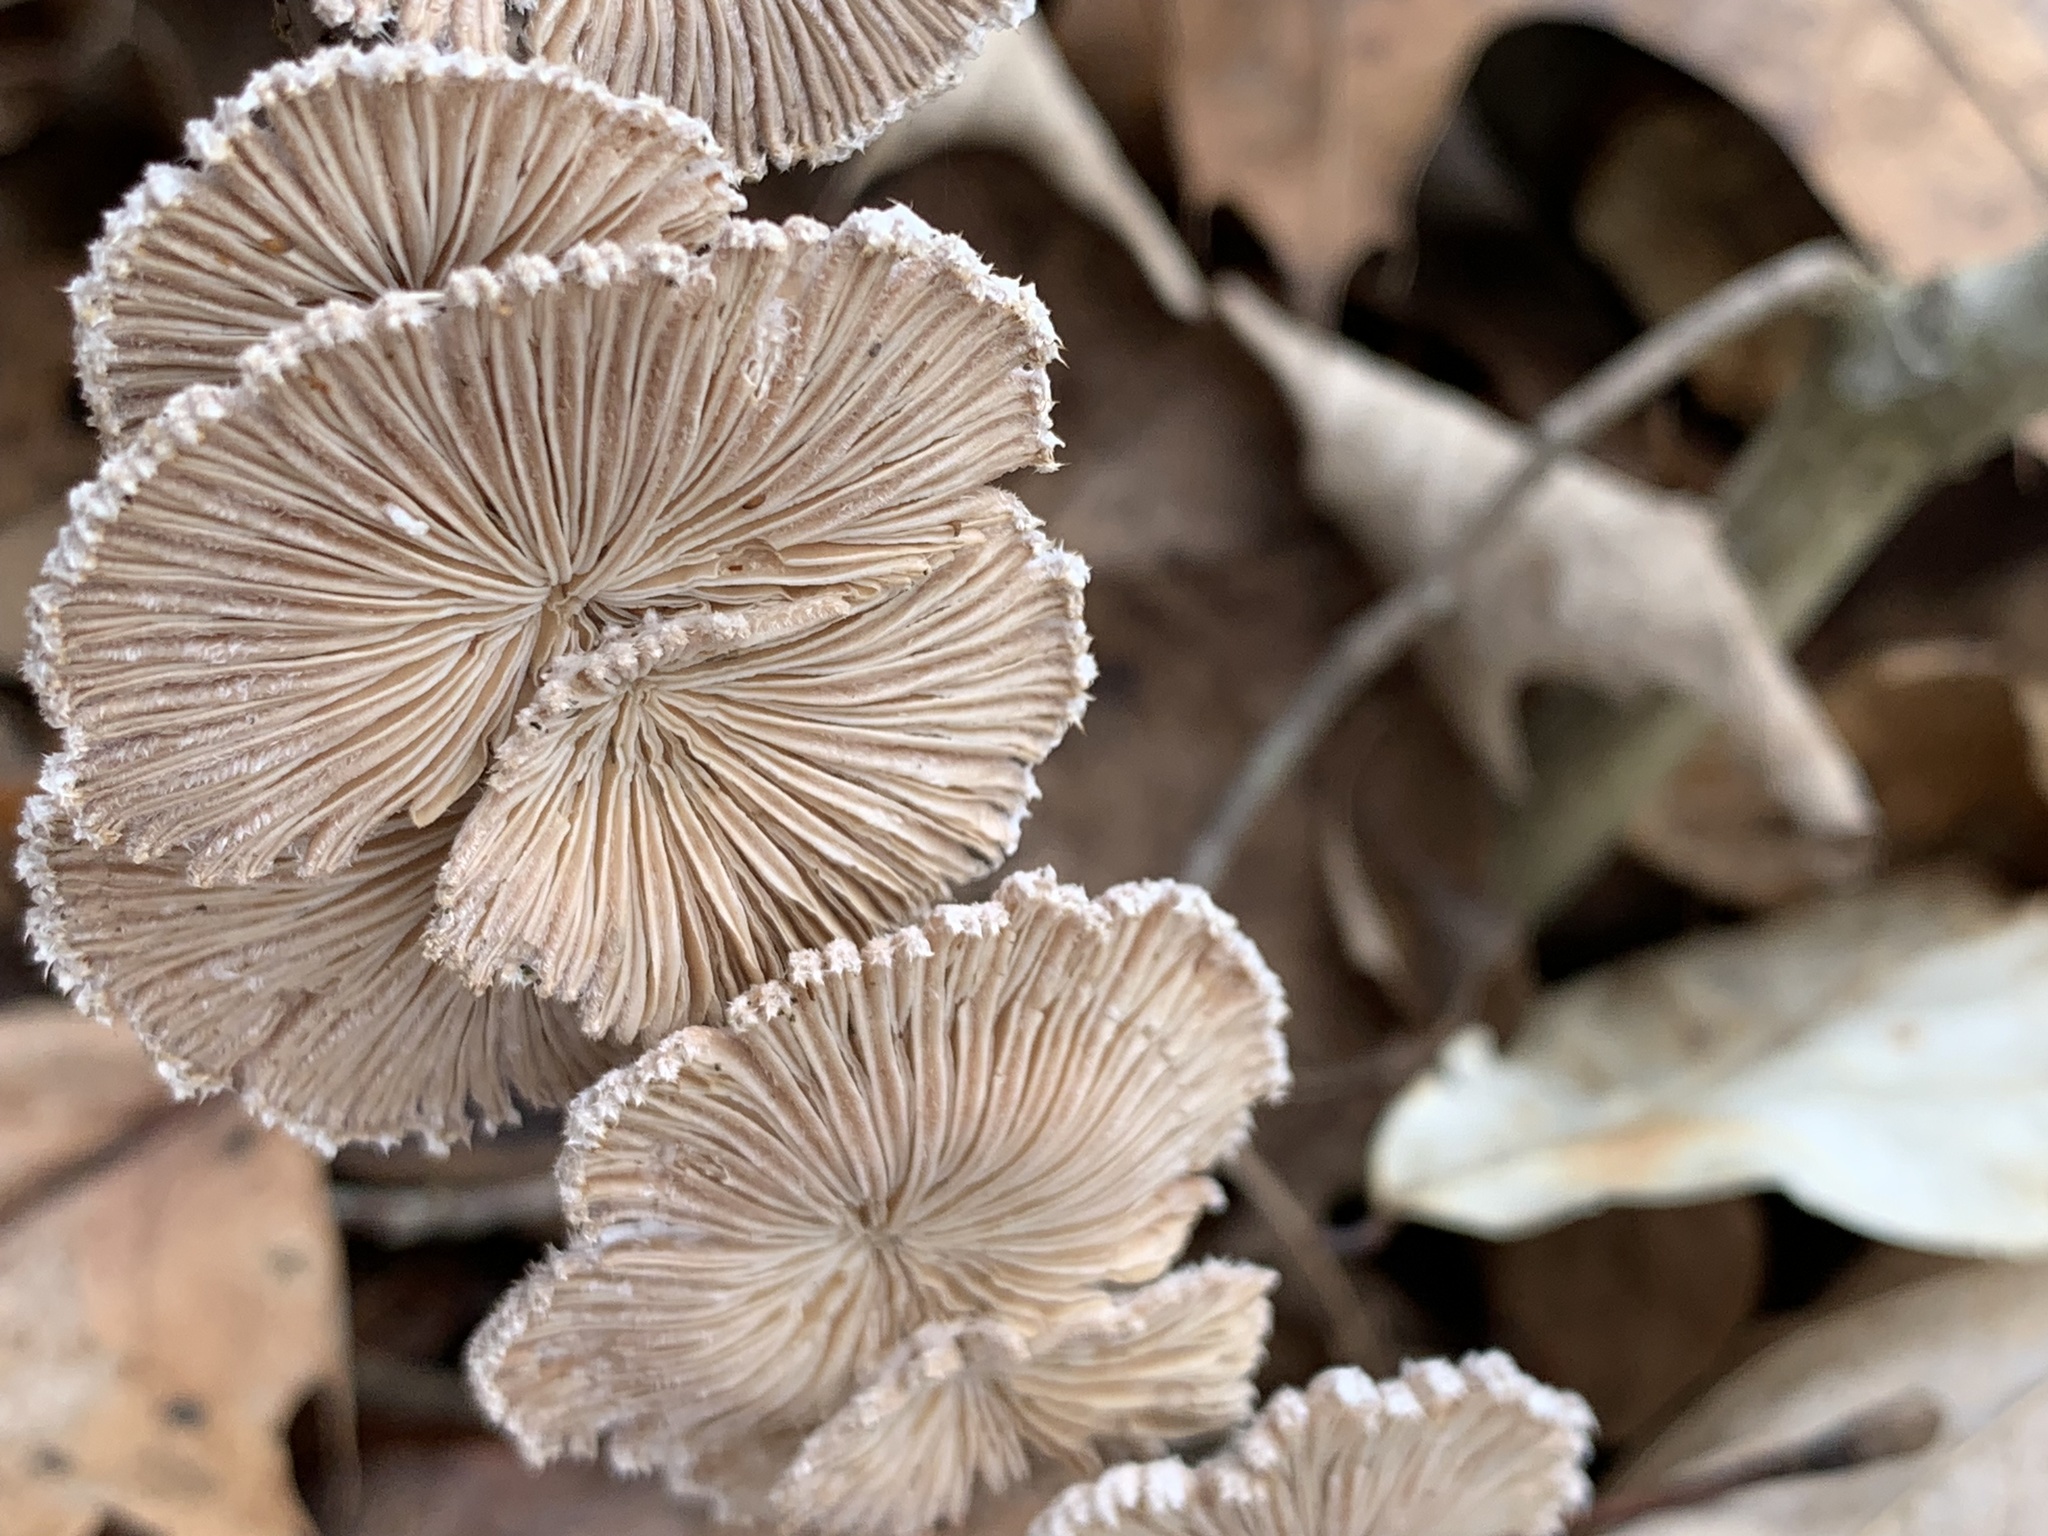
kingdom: Fungi
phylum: Basidiomycota
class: Agaricomycetes
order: Agaricales
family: Schizophyllaceae
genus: Schizophyllum
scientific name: Schizophyllum commune
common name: Common porecrust
